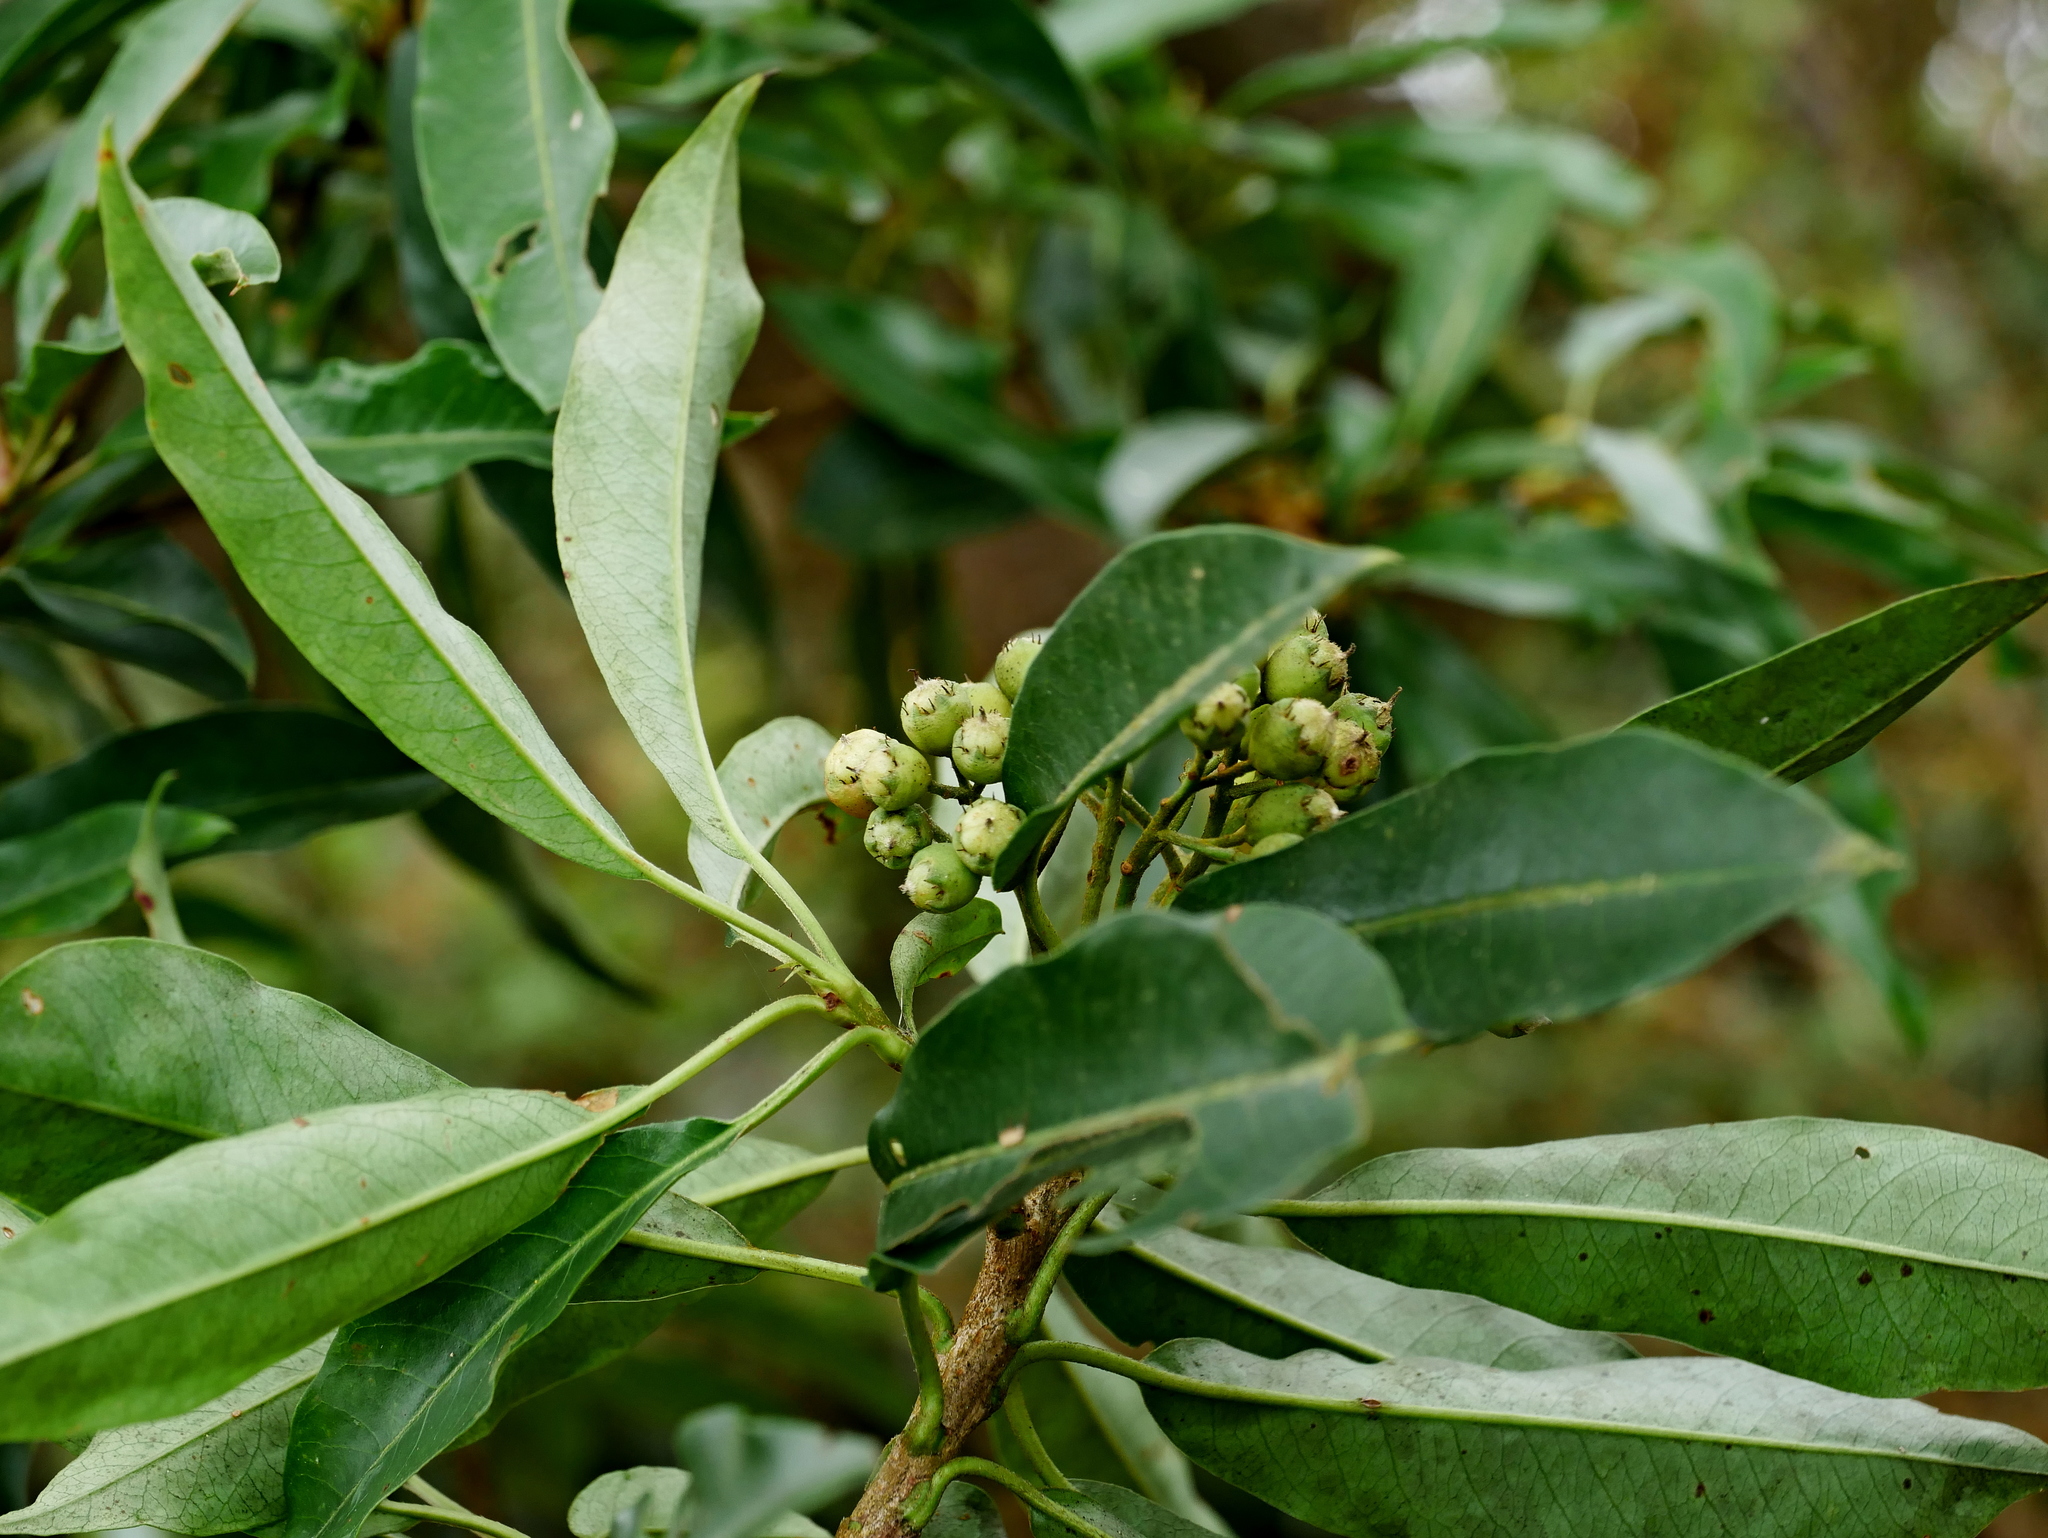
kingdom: Plantae
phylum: Tracheophyta
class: Magnoliopsida
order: Rosales
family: Rosaceae
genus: Stranvaesia
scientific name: Stranvaesia davidiana
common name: Chinese photinia
